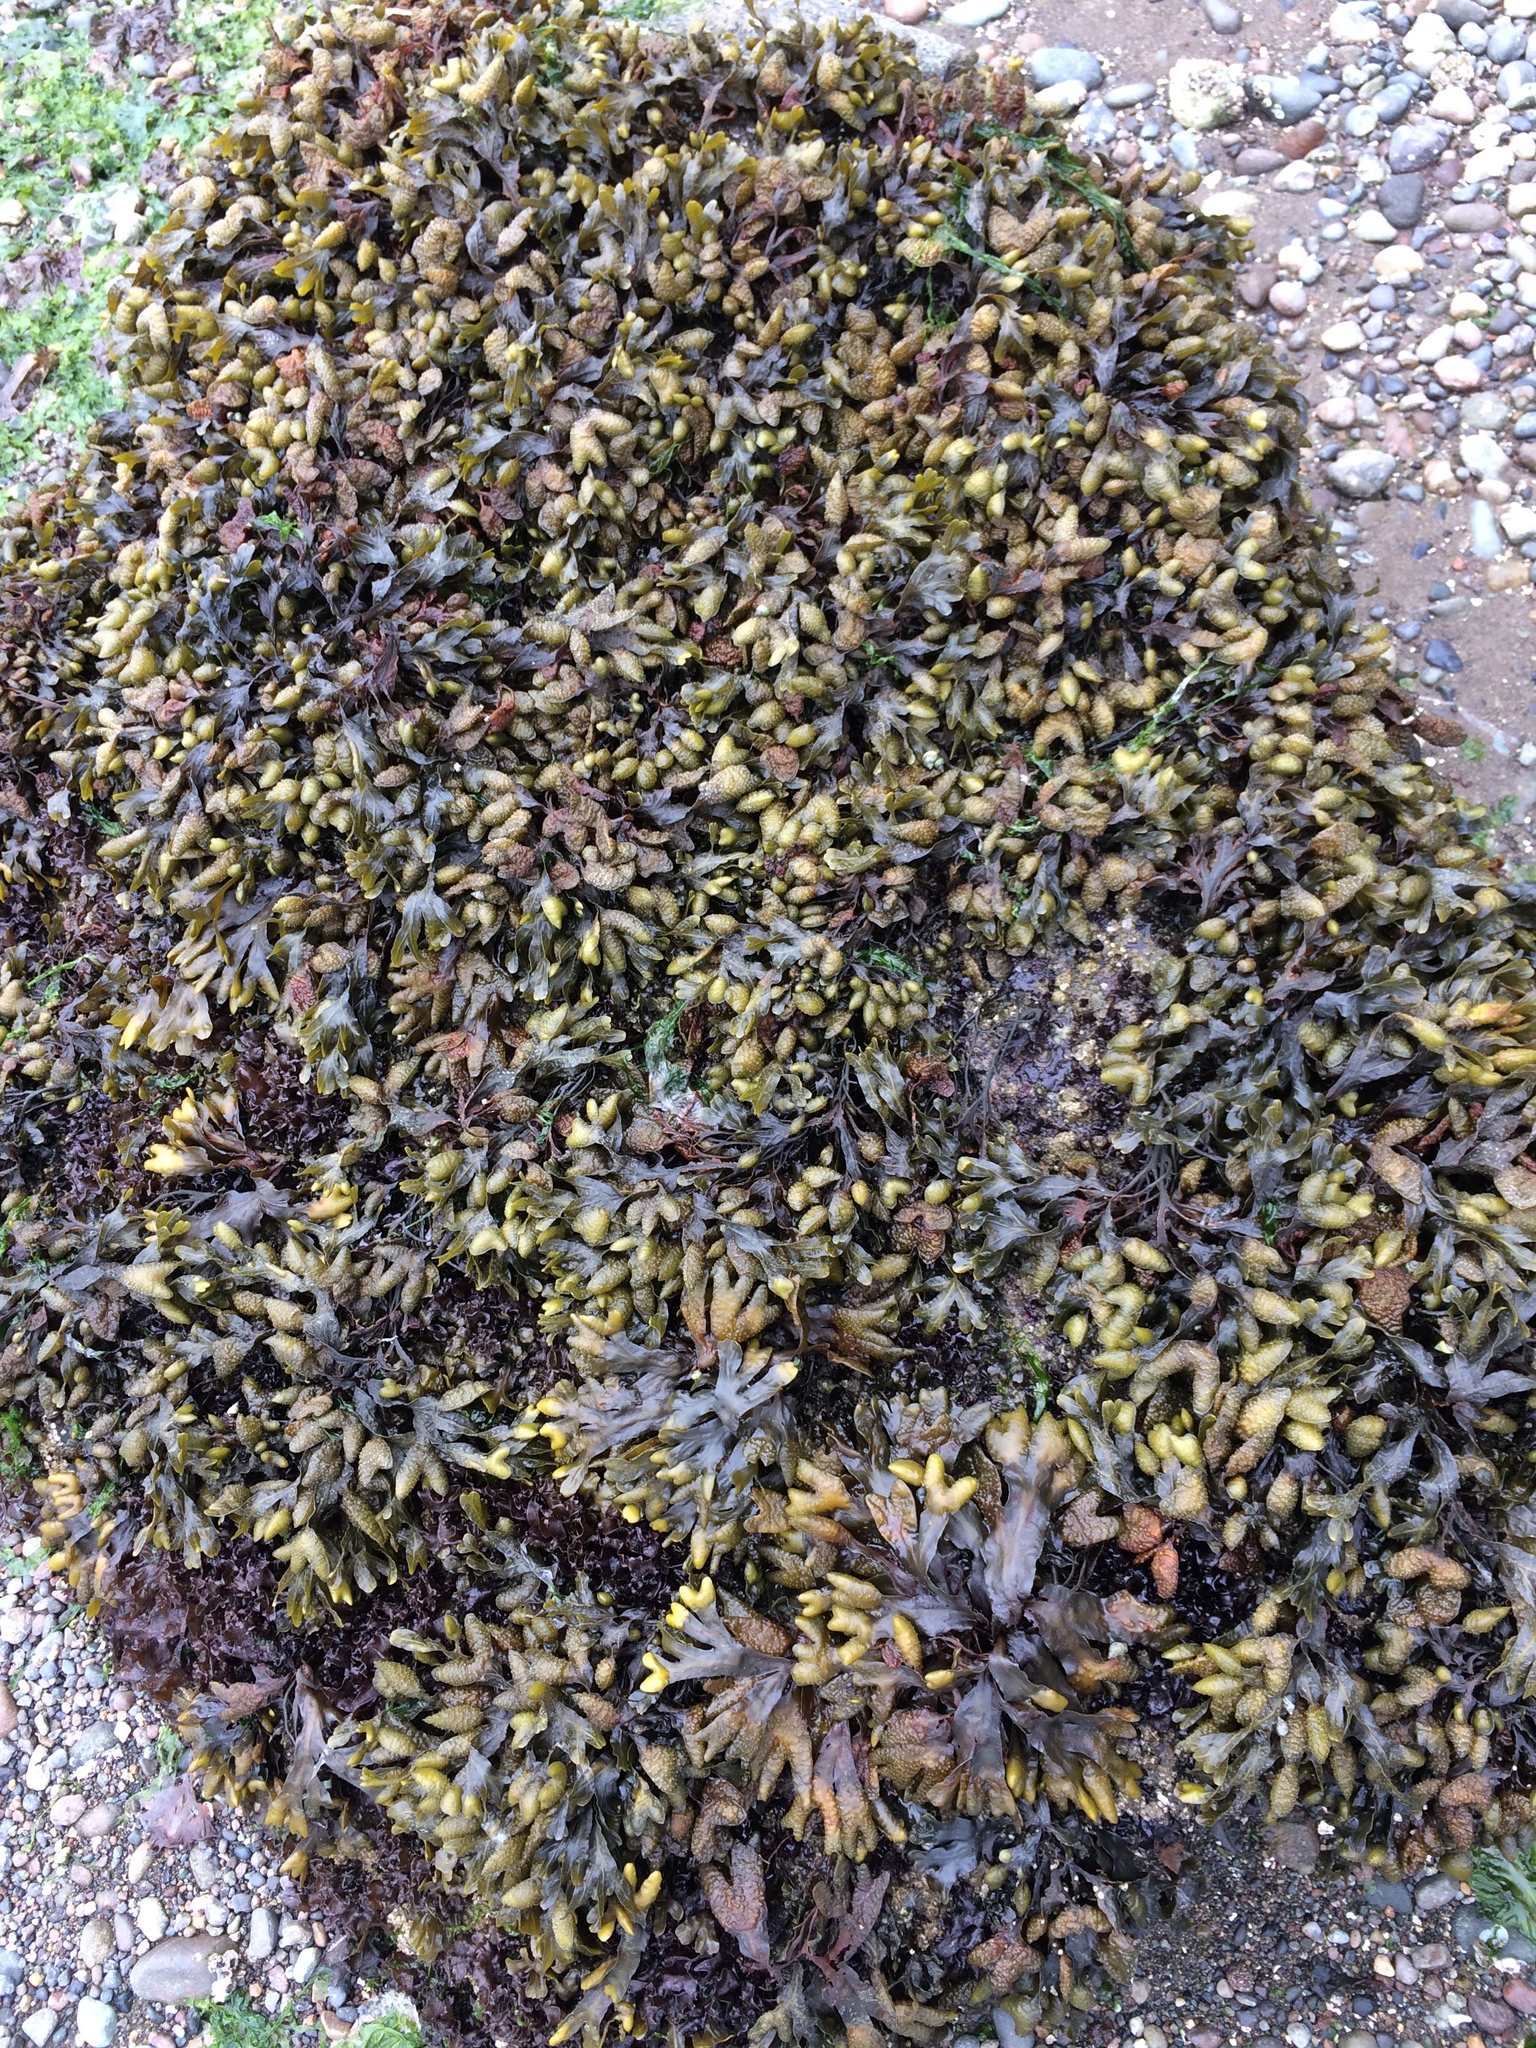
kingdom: Chromista
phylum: Ochrophyta
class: Phaeophyceae
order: Fucales
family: Fucaceae
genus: Fucus
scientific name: Fucus distichus
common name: Rockweed
